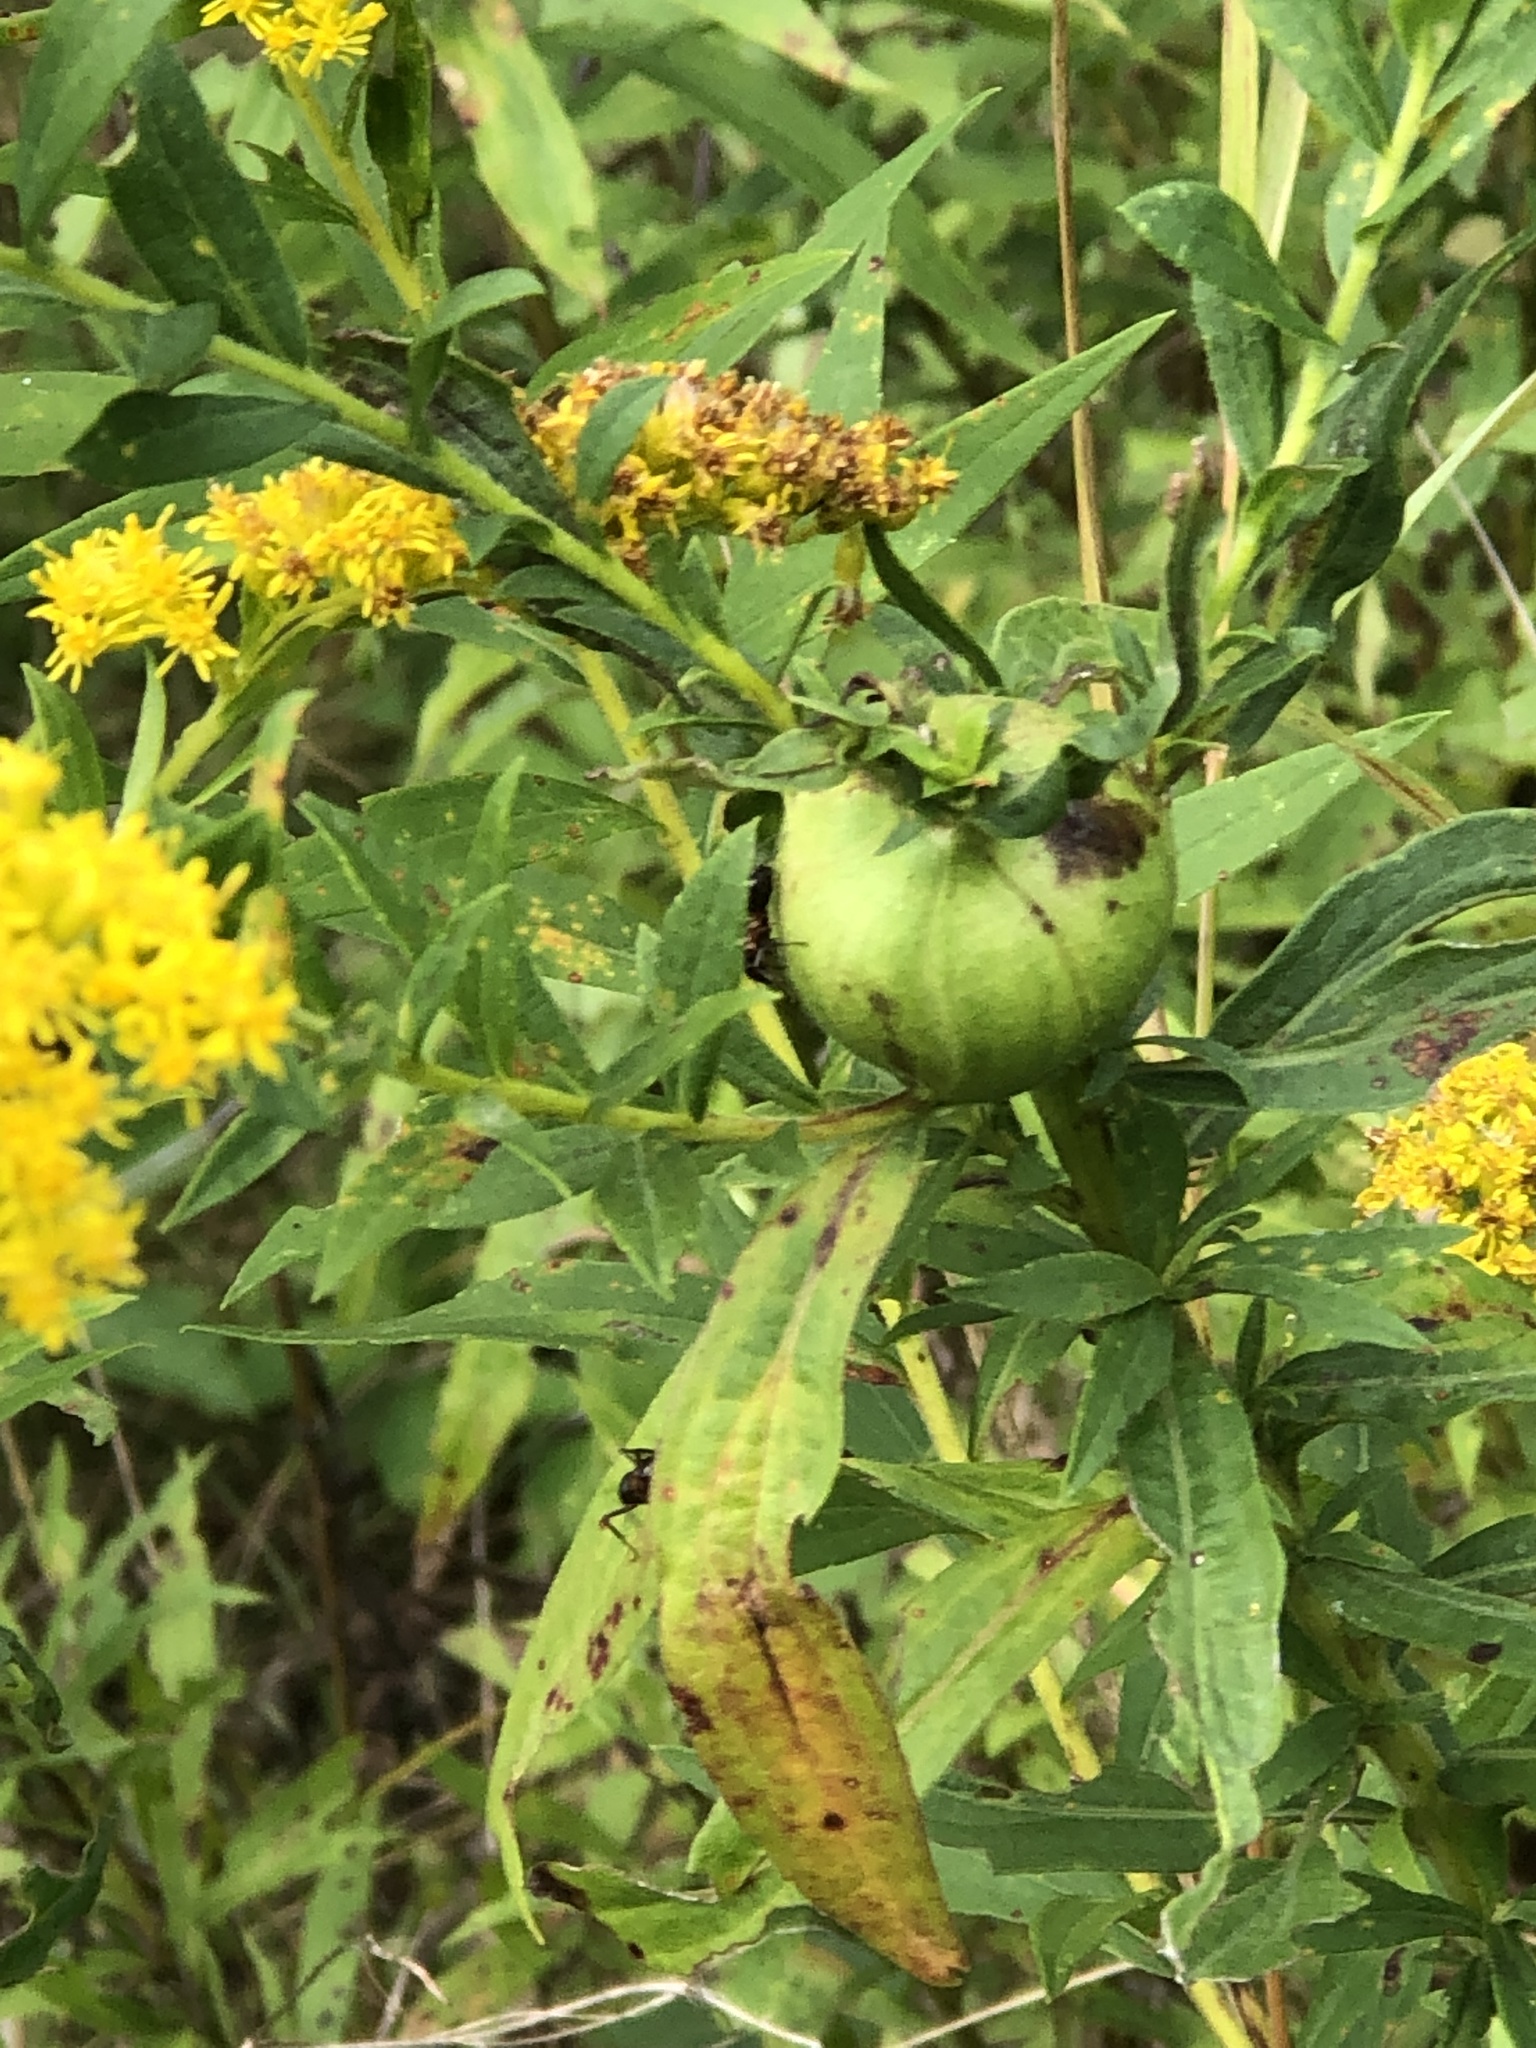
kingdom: Animalia
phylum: Arthropoda
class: Insecta
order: Diptera
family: Tephritidae
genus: Eurosta
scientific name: Eurosta solidaginis
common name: Goldenrod gall fly
